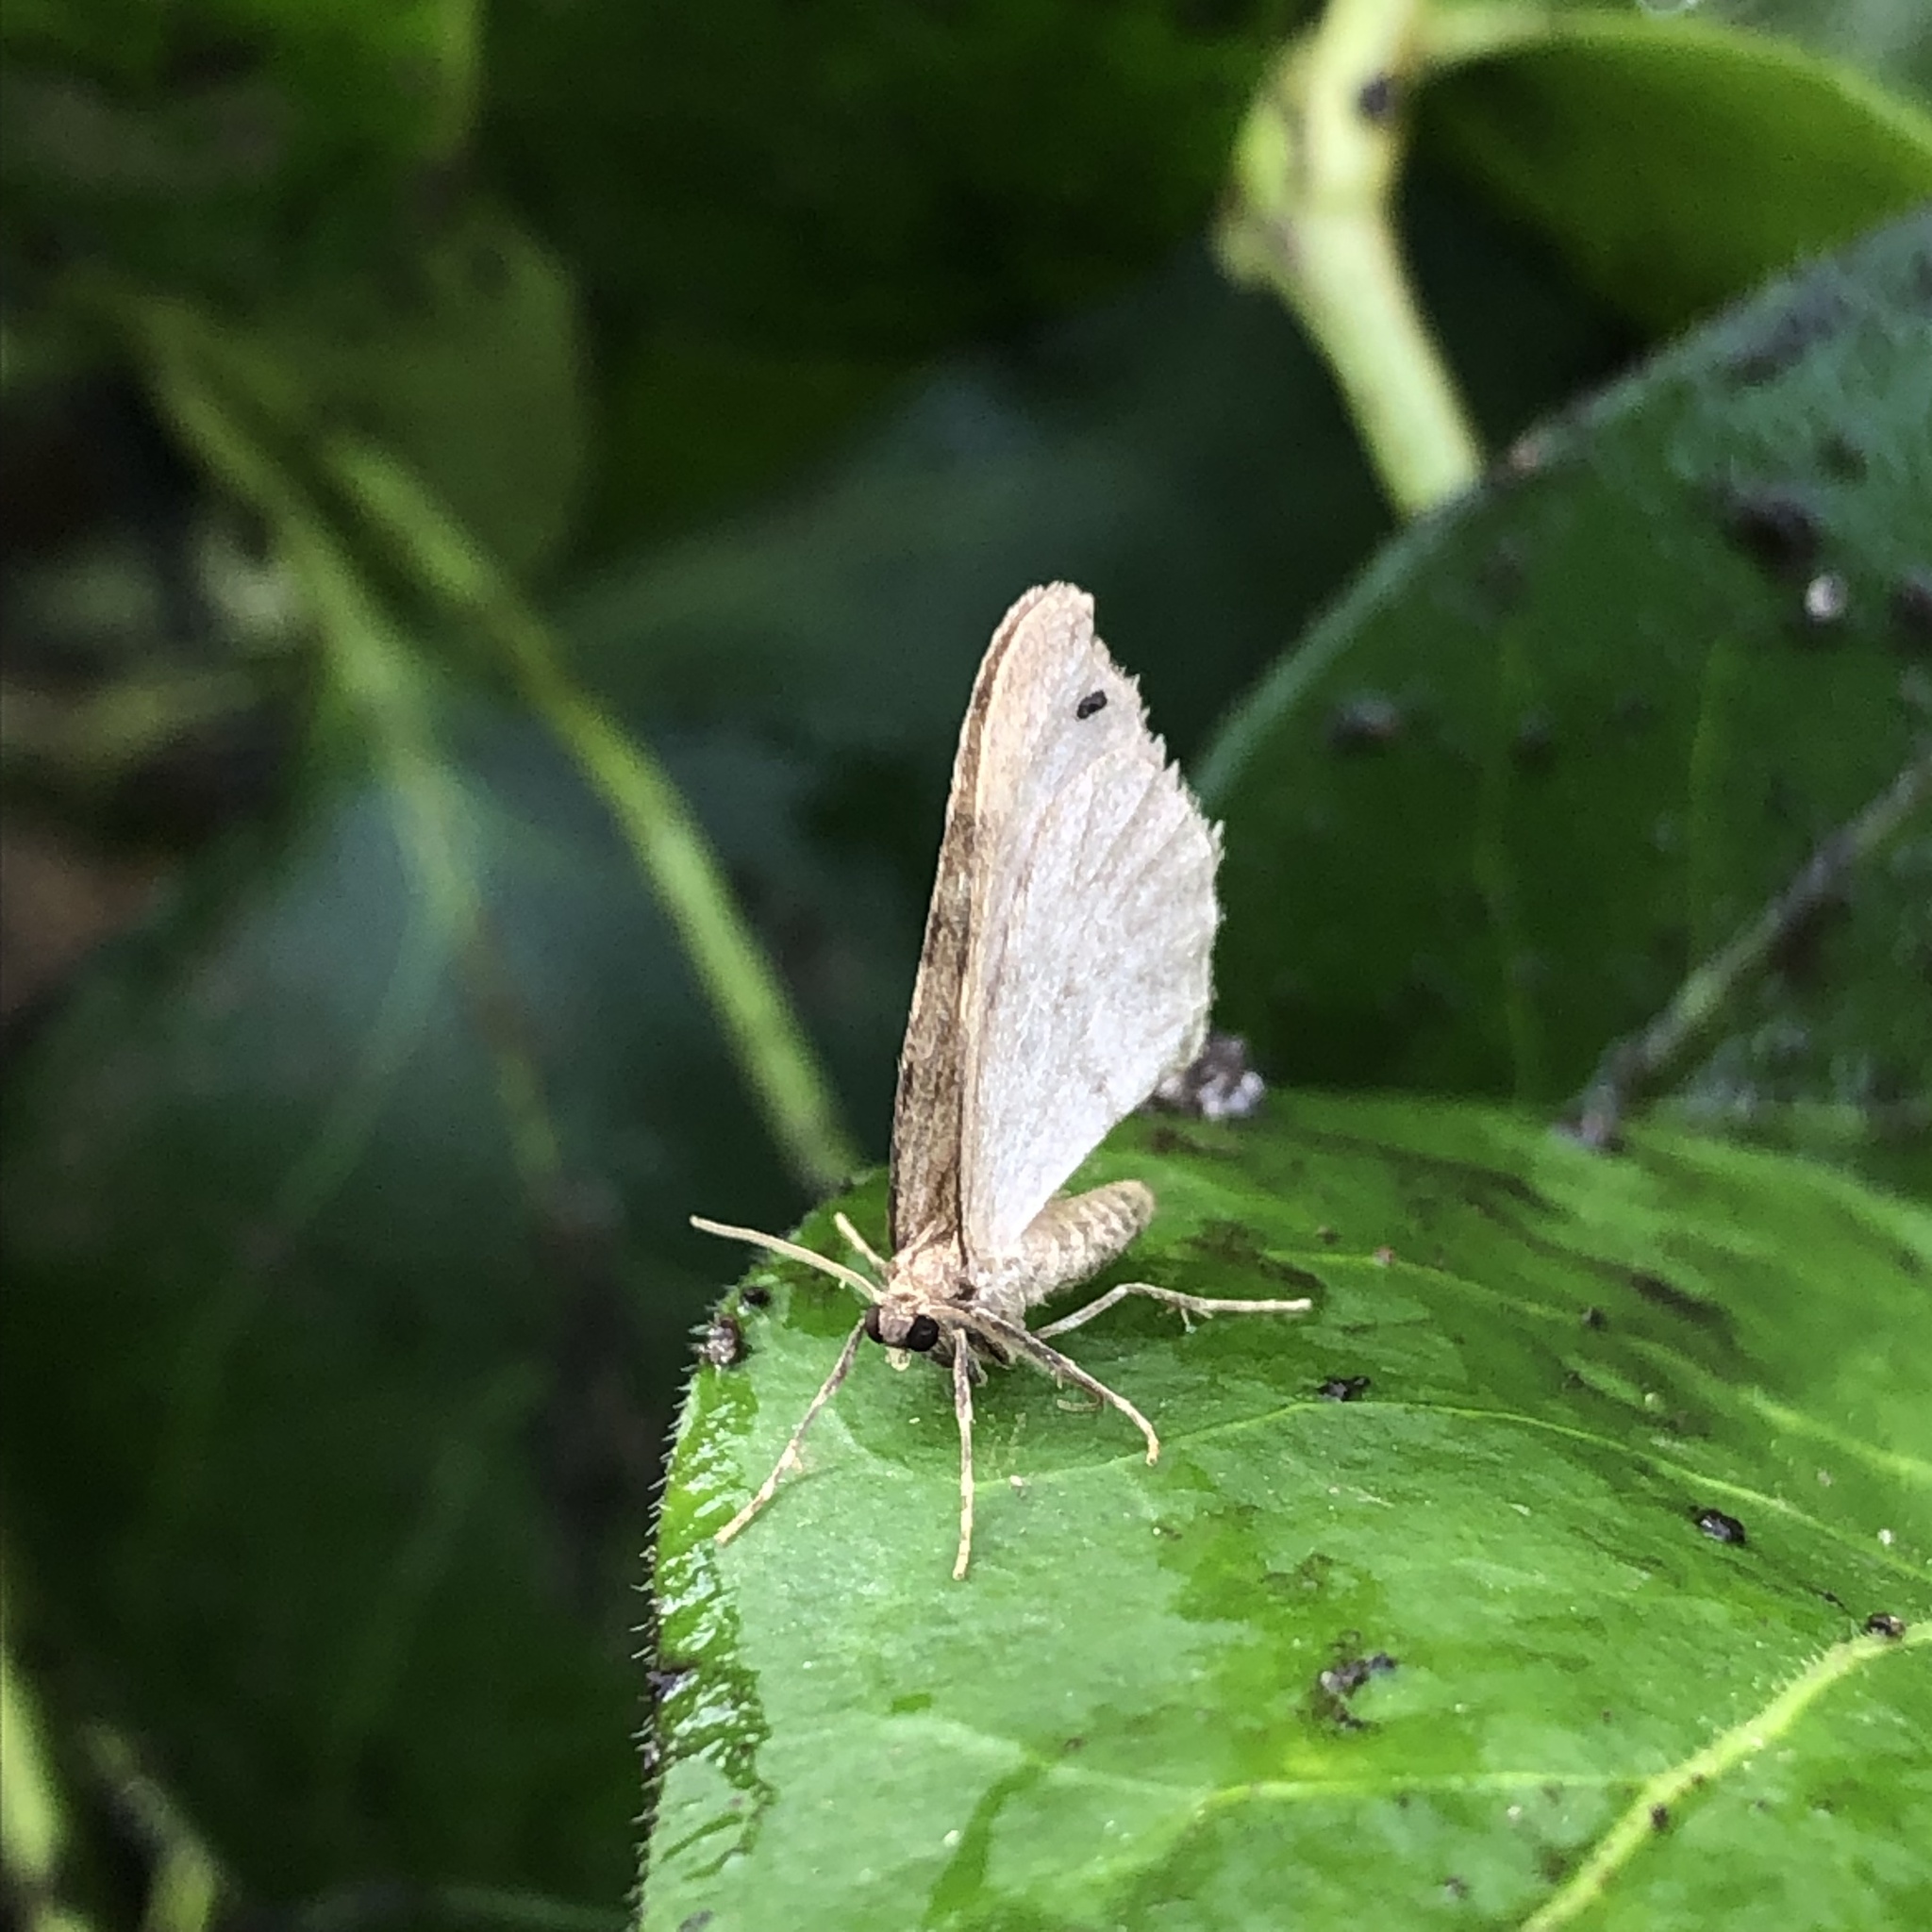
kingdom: Animalia
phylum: Arthropoda
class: Insecta
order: Lepidoptera
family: Geometridae
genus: Operophtera
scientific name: Operophtera
